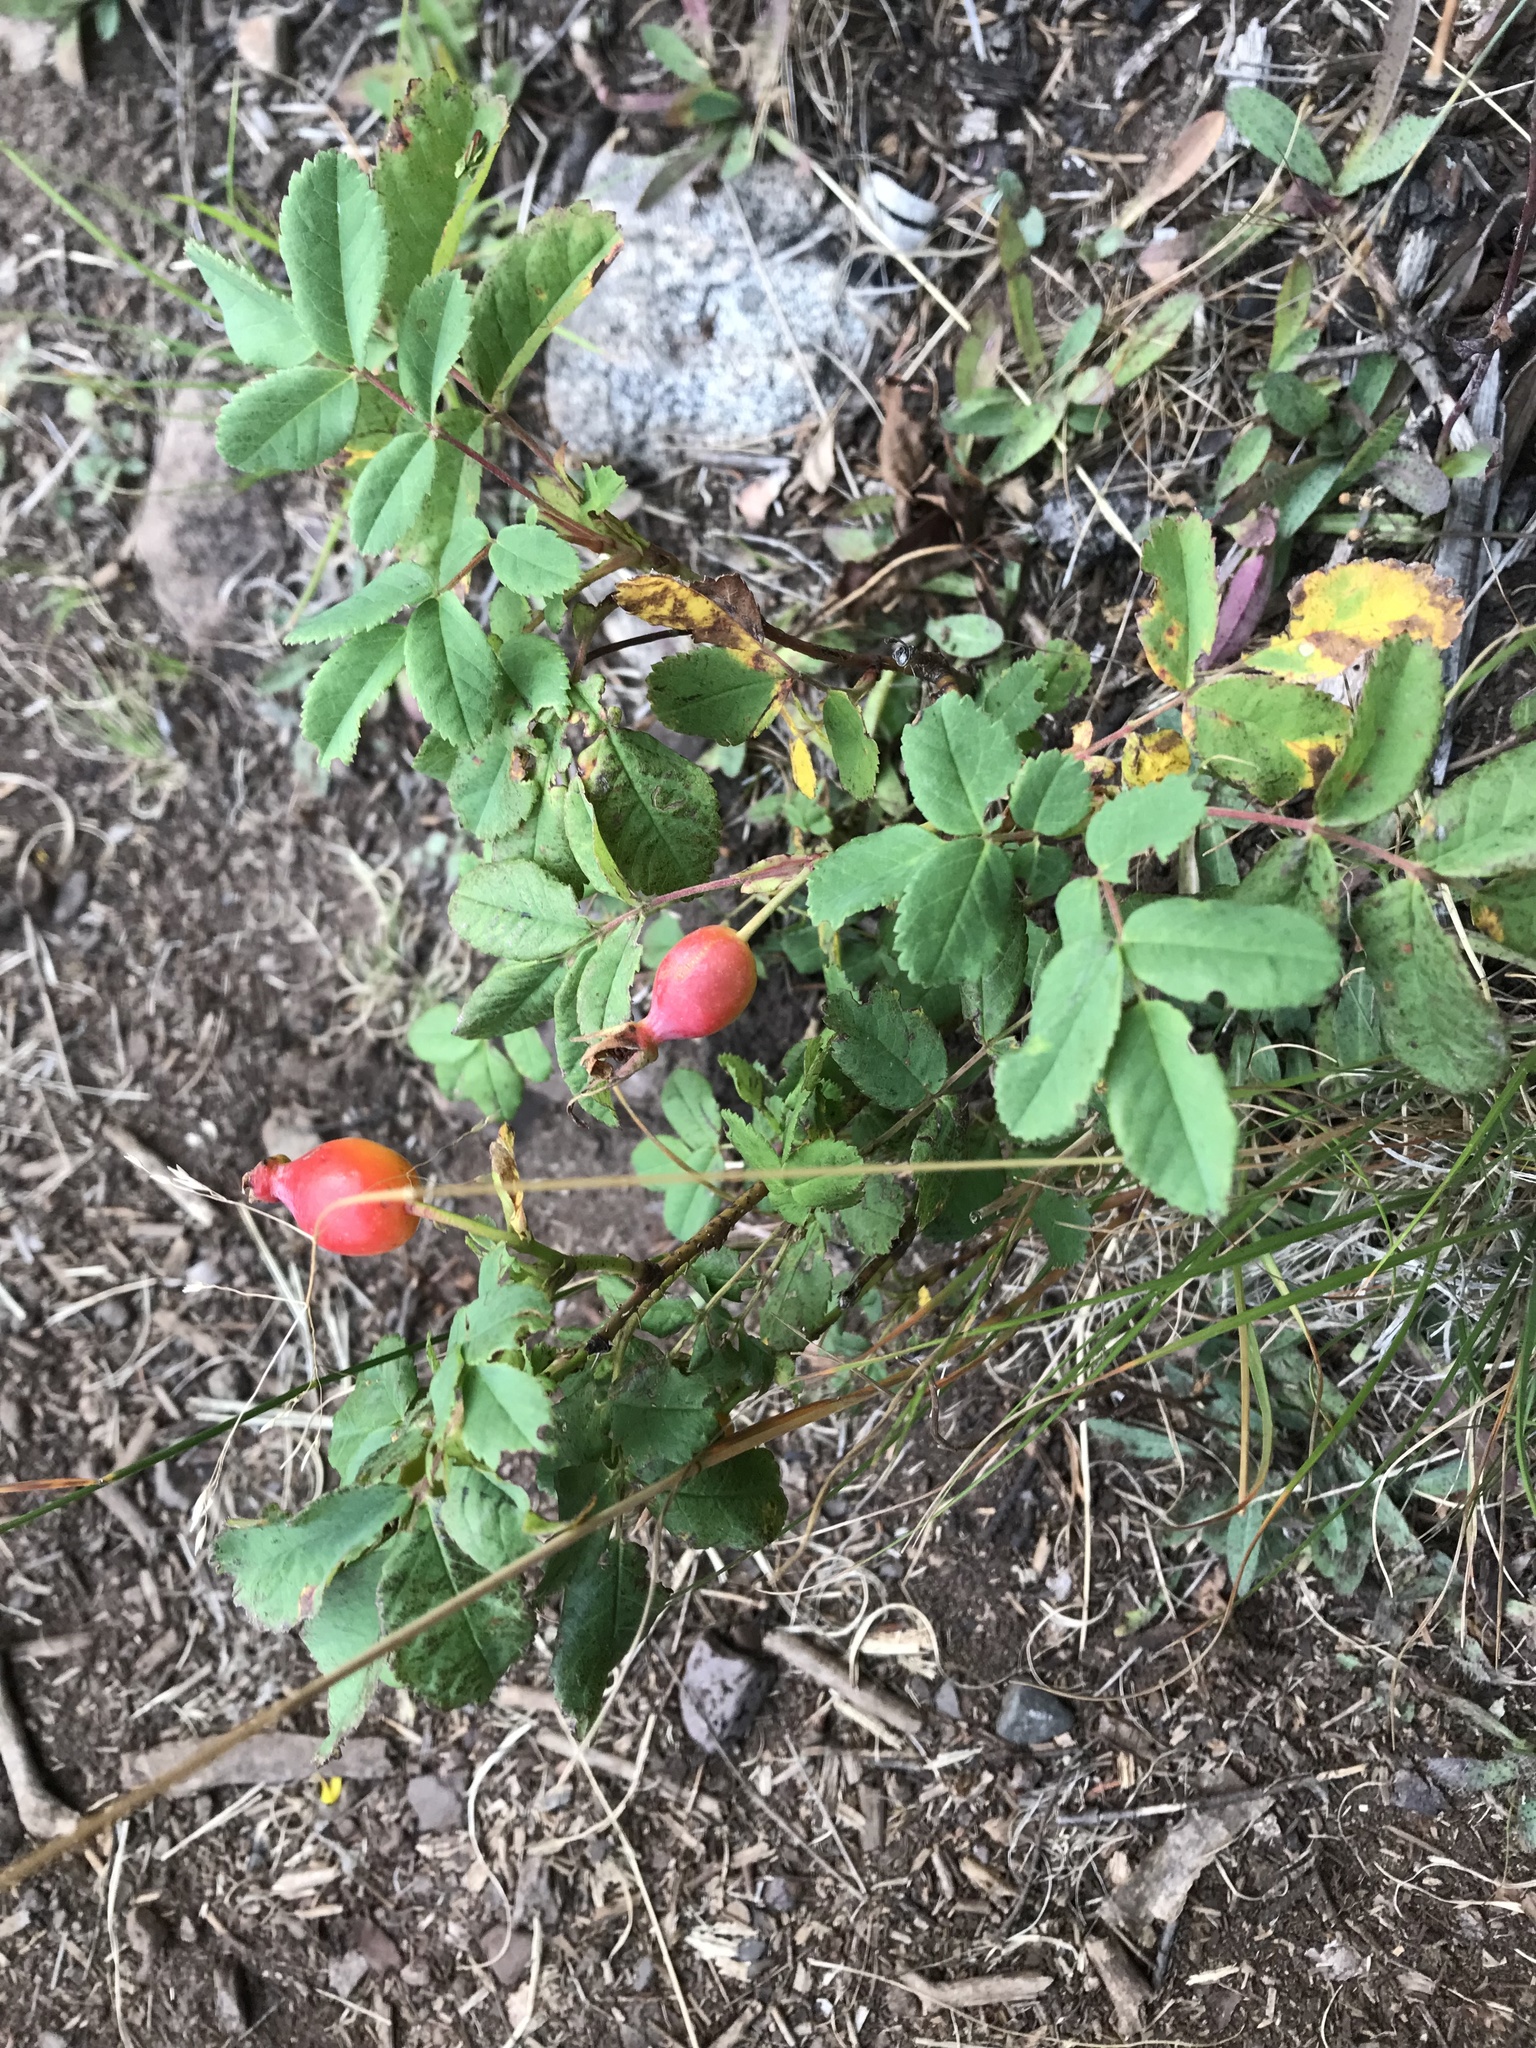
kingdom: Plantae
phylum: Tracheophyta
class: Magnoliopsida
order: Rosales
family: Rosaceae
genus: Rosa
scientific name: Rosa acicularis
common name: Prickly rose
